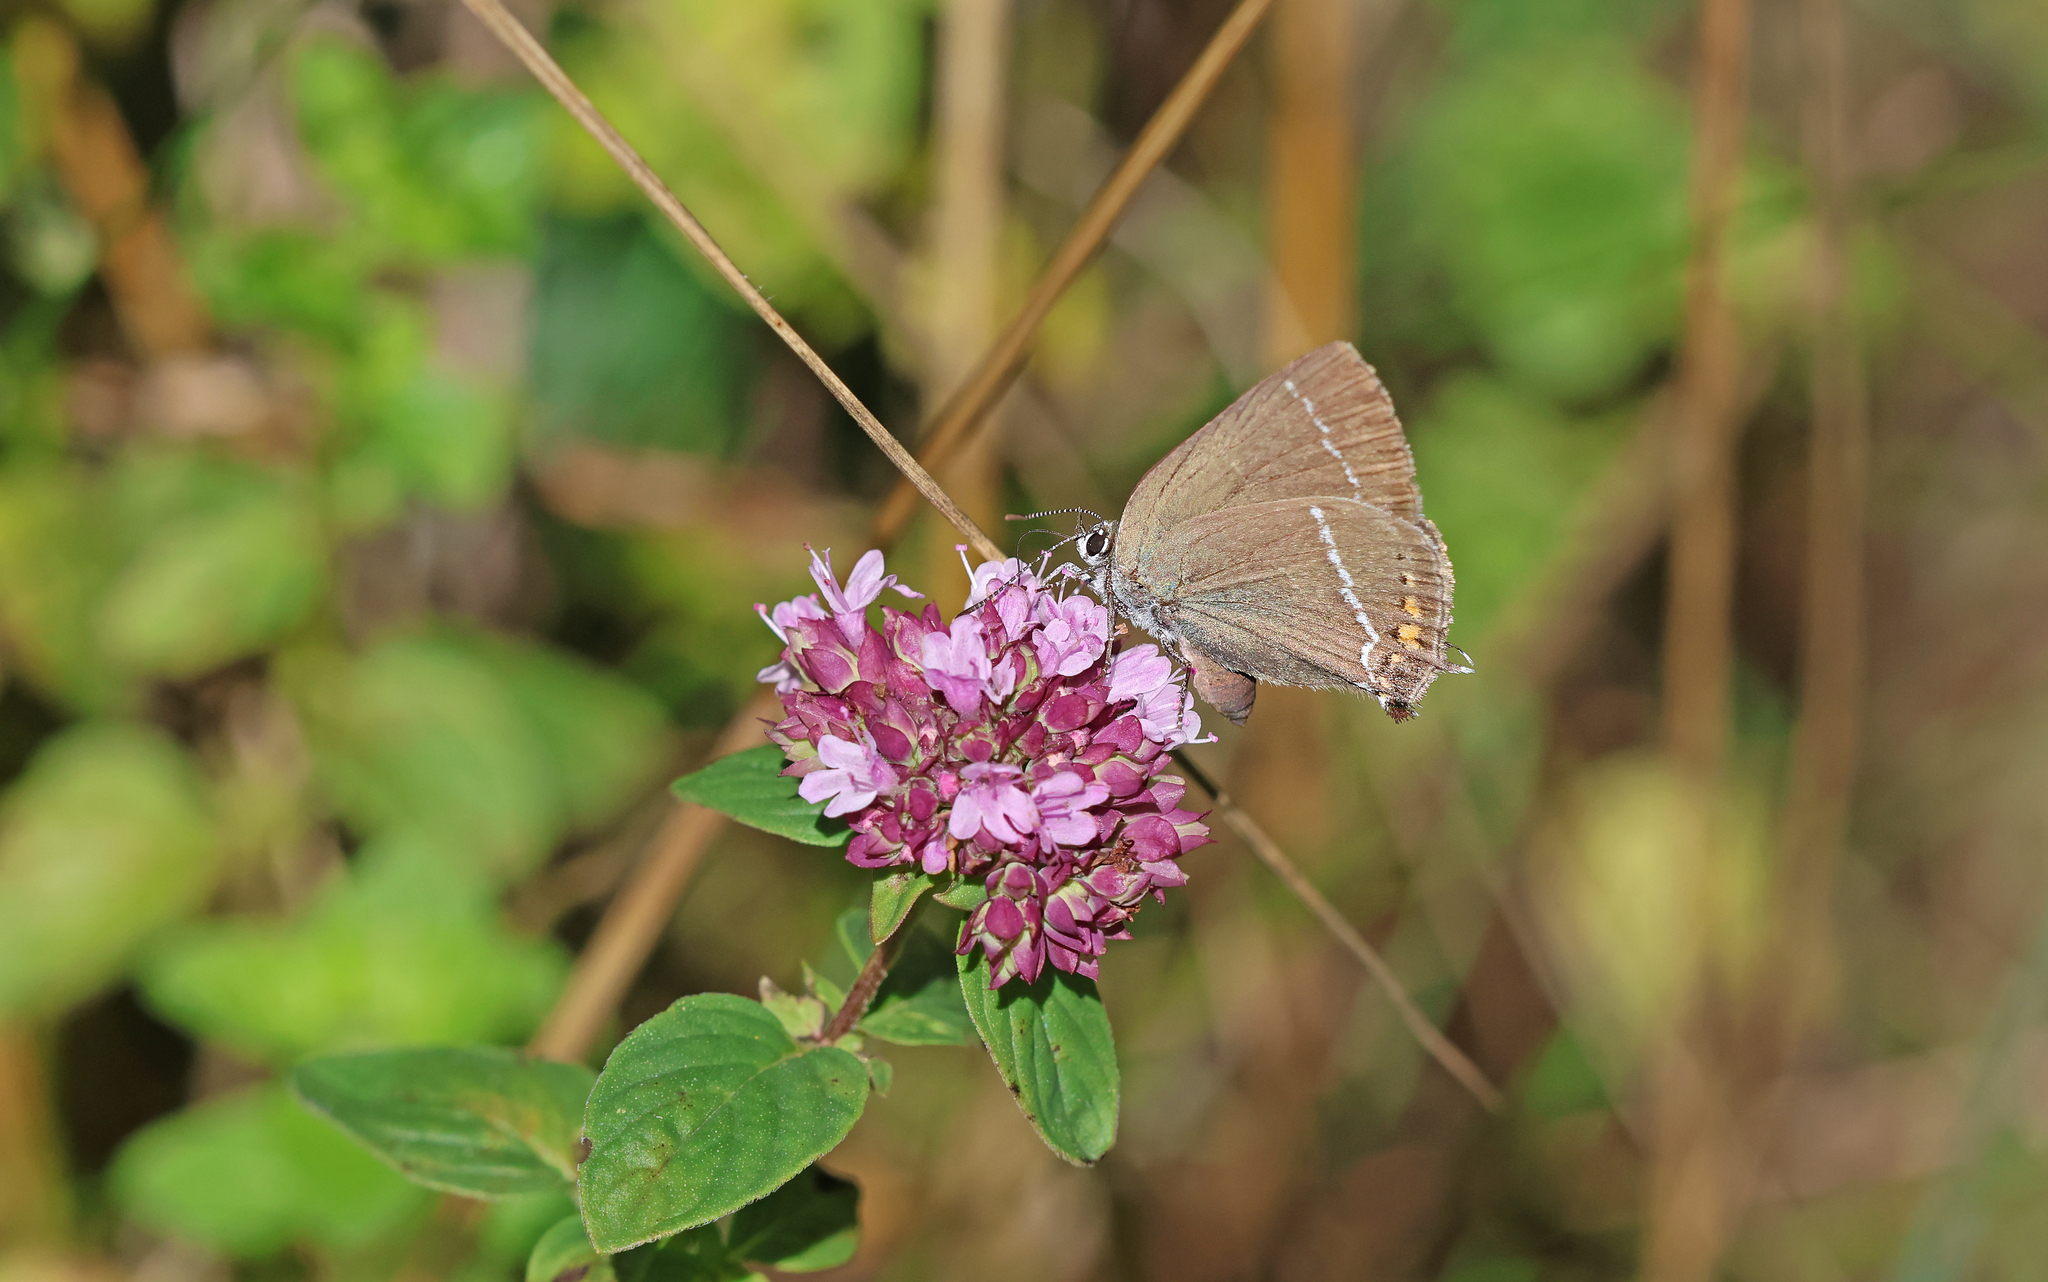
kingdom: Animalia
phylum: Arthropoda
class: Insecta
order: Lepidoptera
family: Lycaenidae
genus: Tuttiola
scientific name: Tuttiola spini
